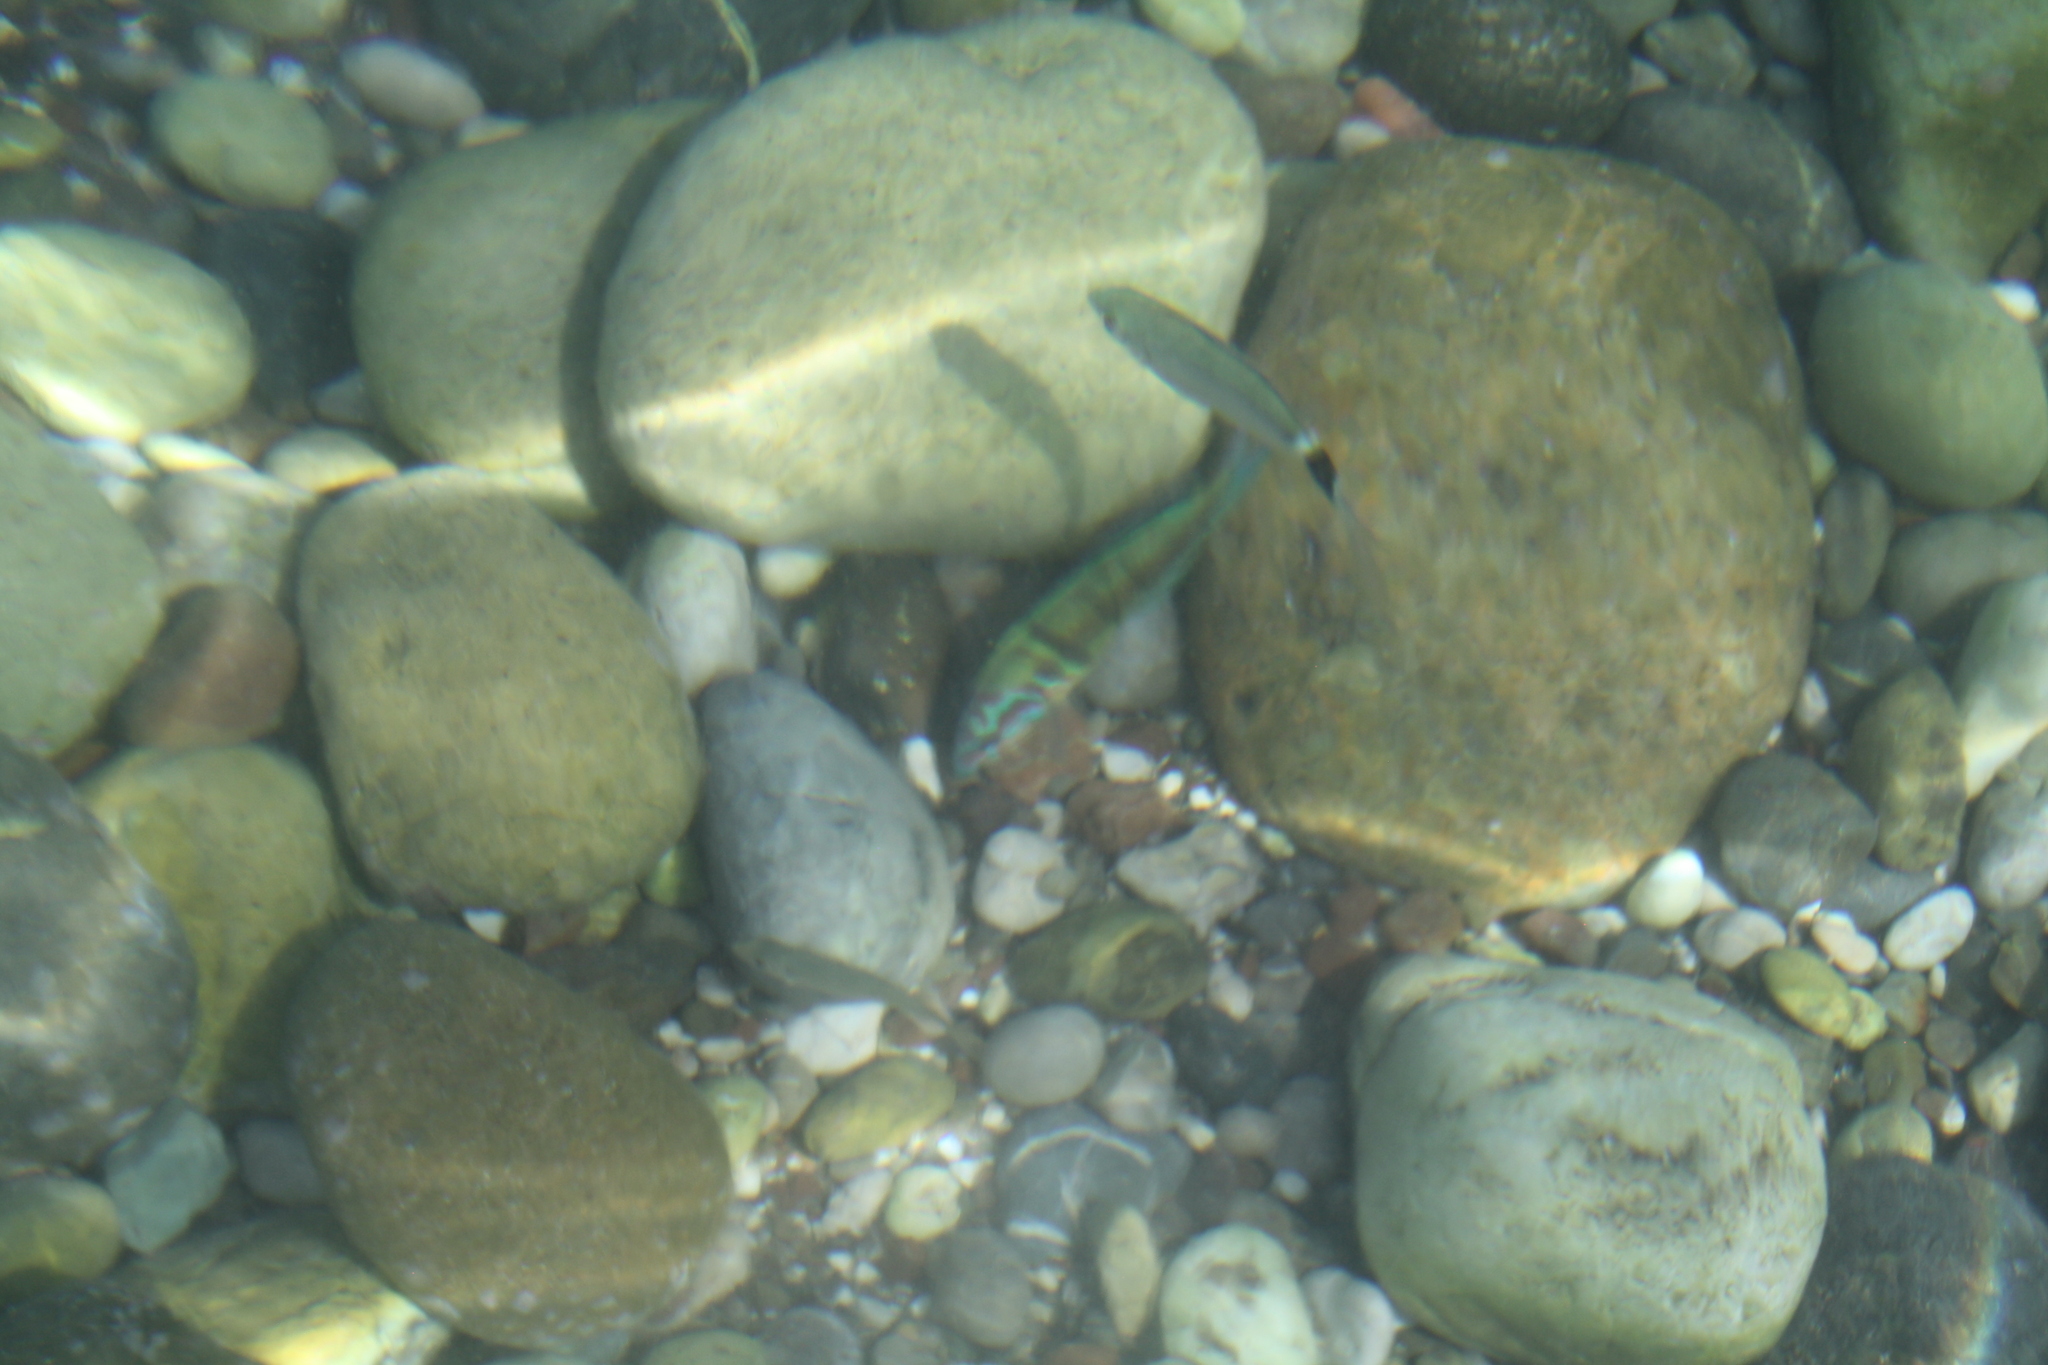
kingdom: Animalia
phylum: Chordata
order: Perciformes
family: Sparidae
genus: Oblada
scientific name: Oblada melanura
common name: Saddled seabream
